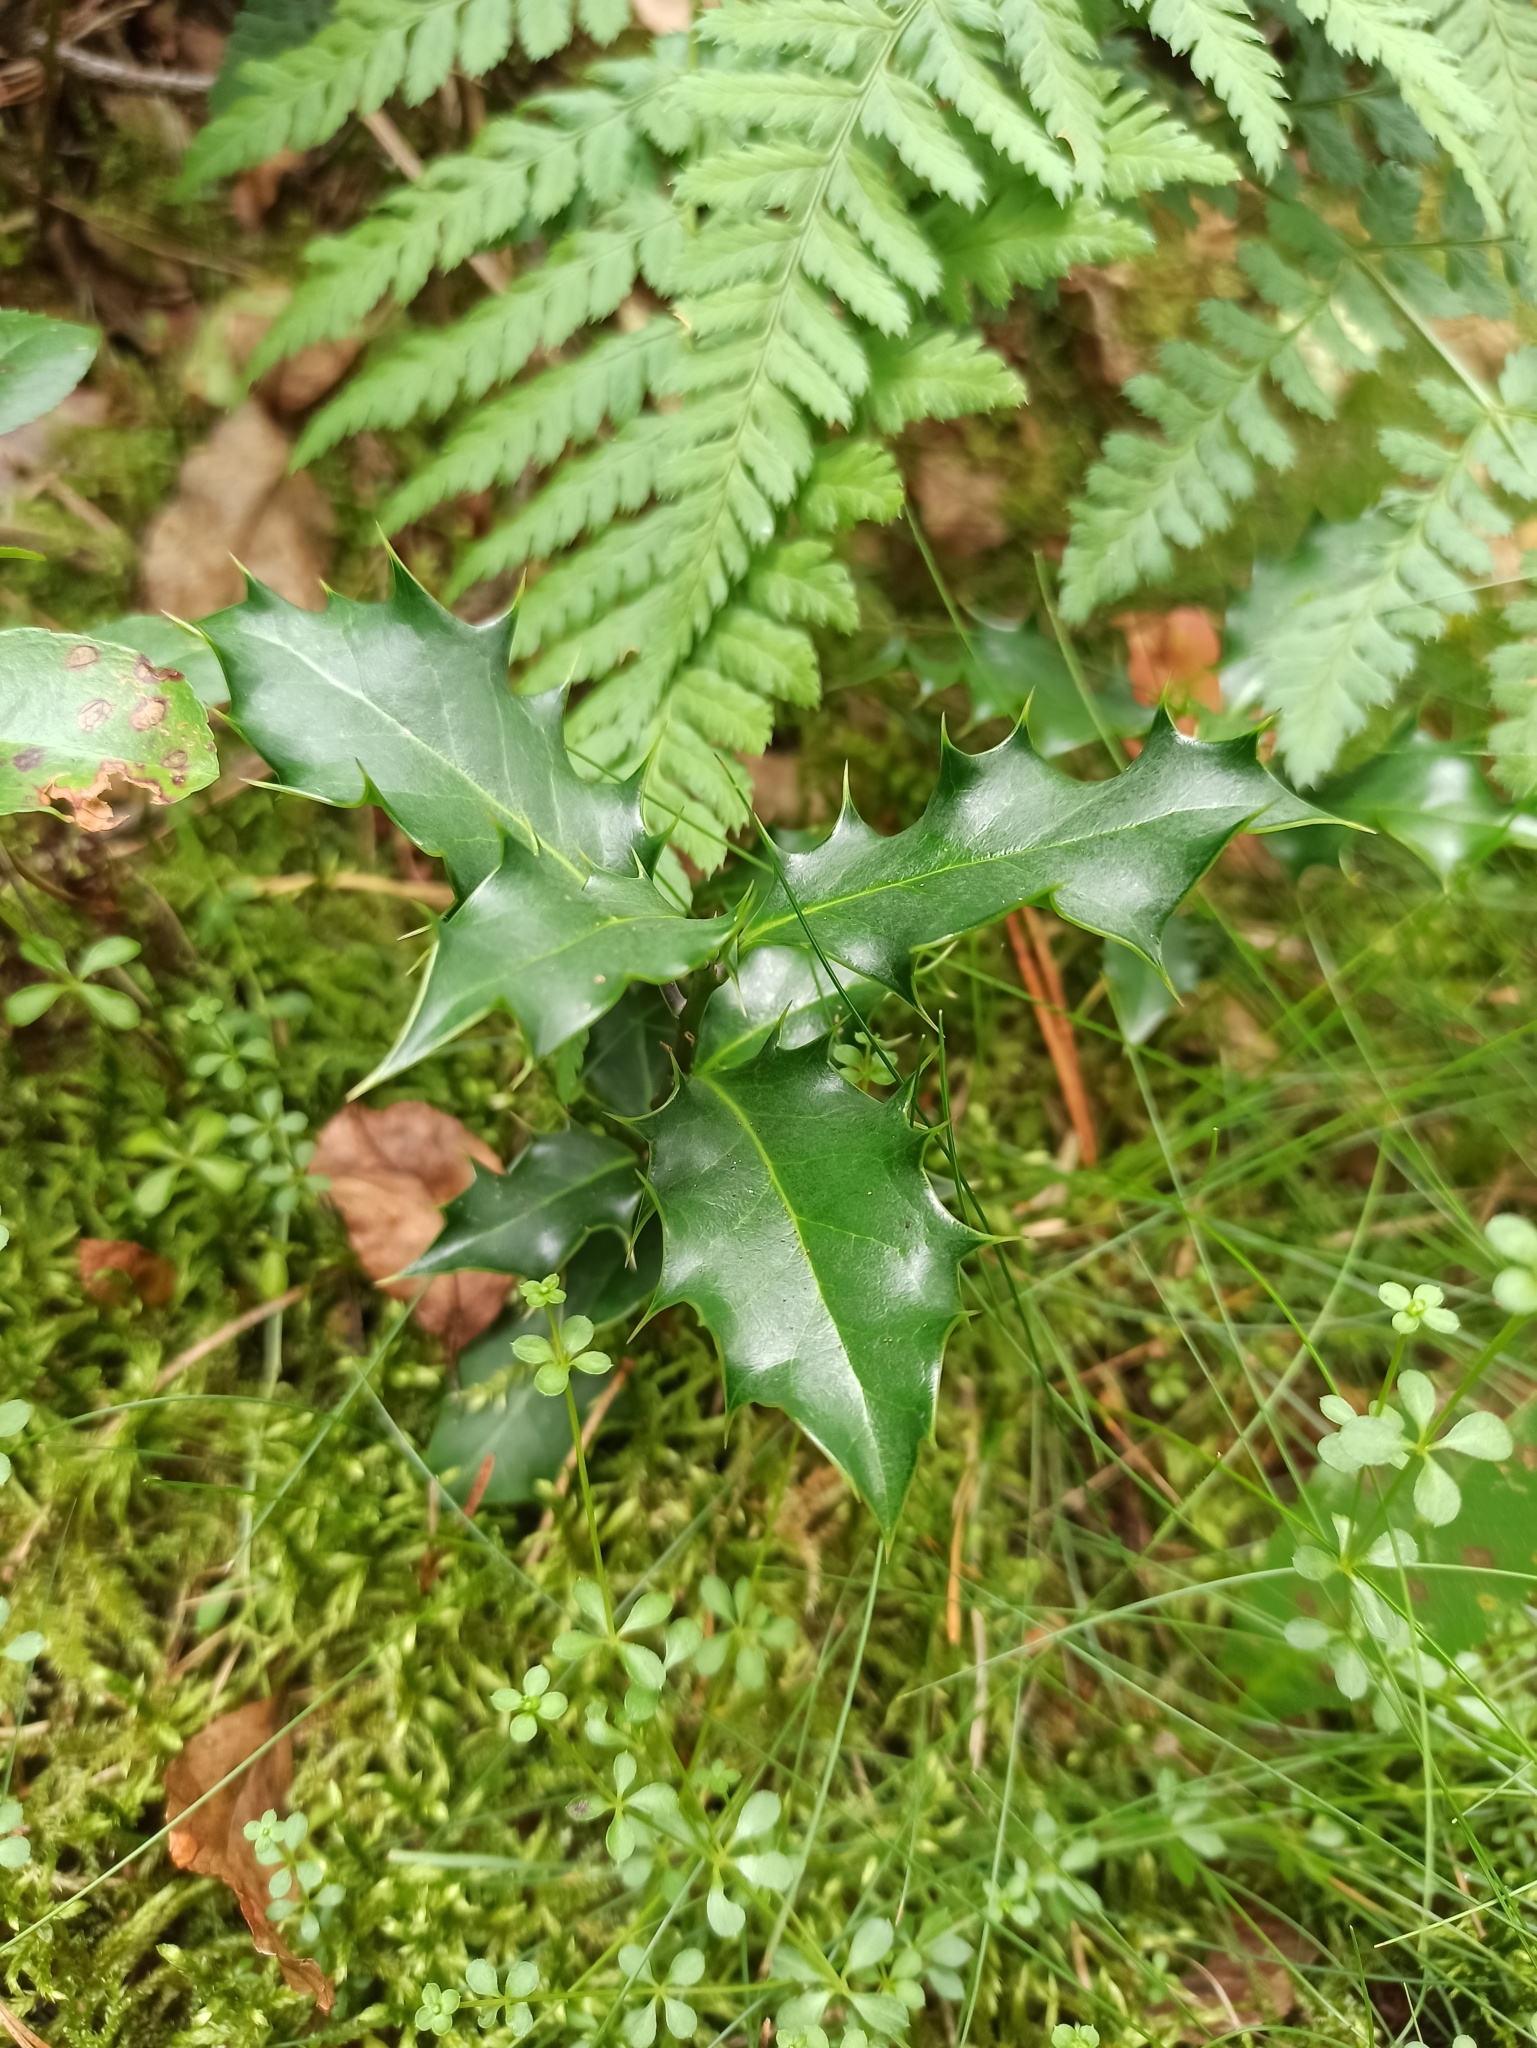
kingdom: Plantae
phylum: Tracheophyta
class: Magnoliopsida
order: Aquifoliales
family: Aquifoliaceae
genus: Ilex
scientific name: Ilex aquifolium
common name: English holly
